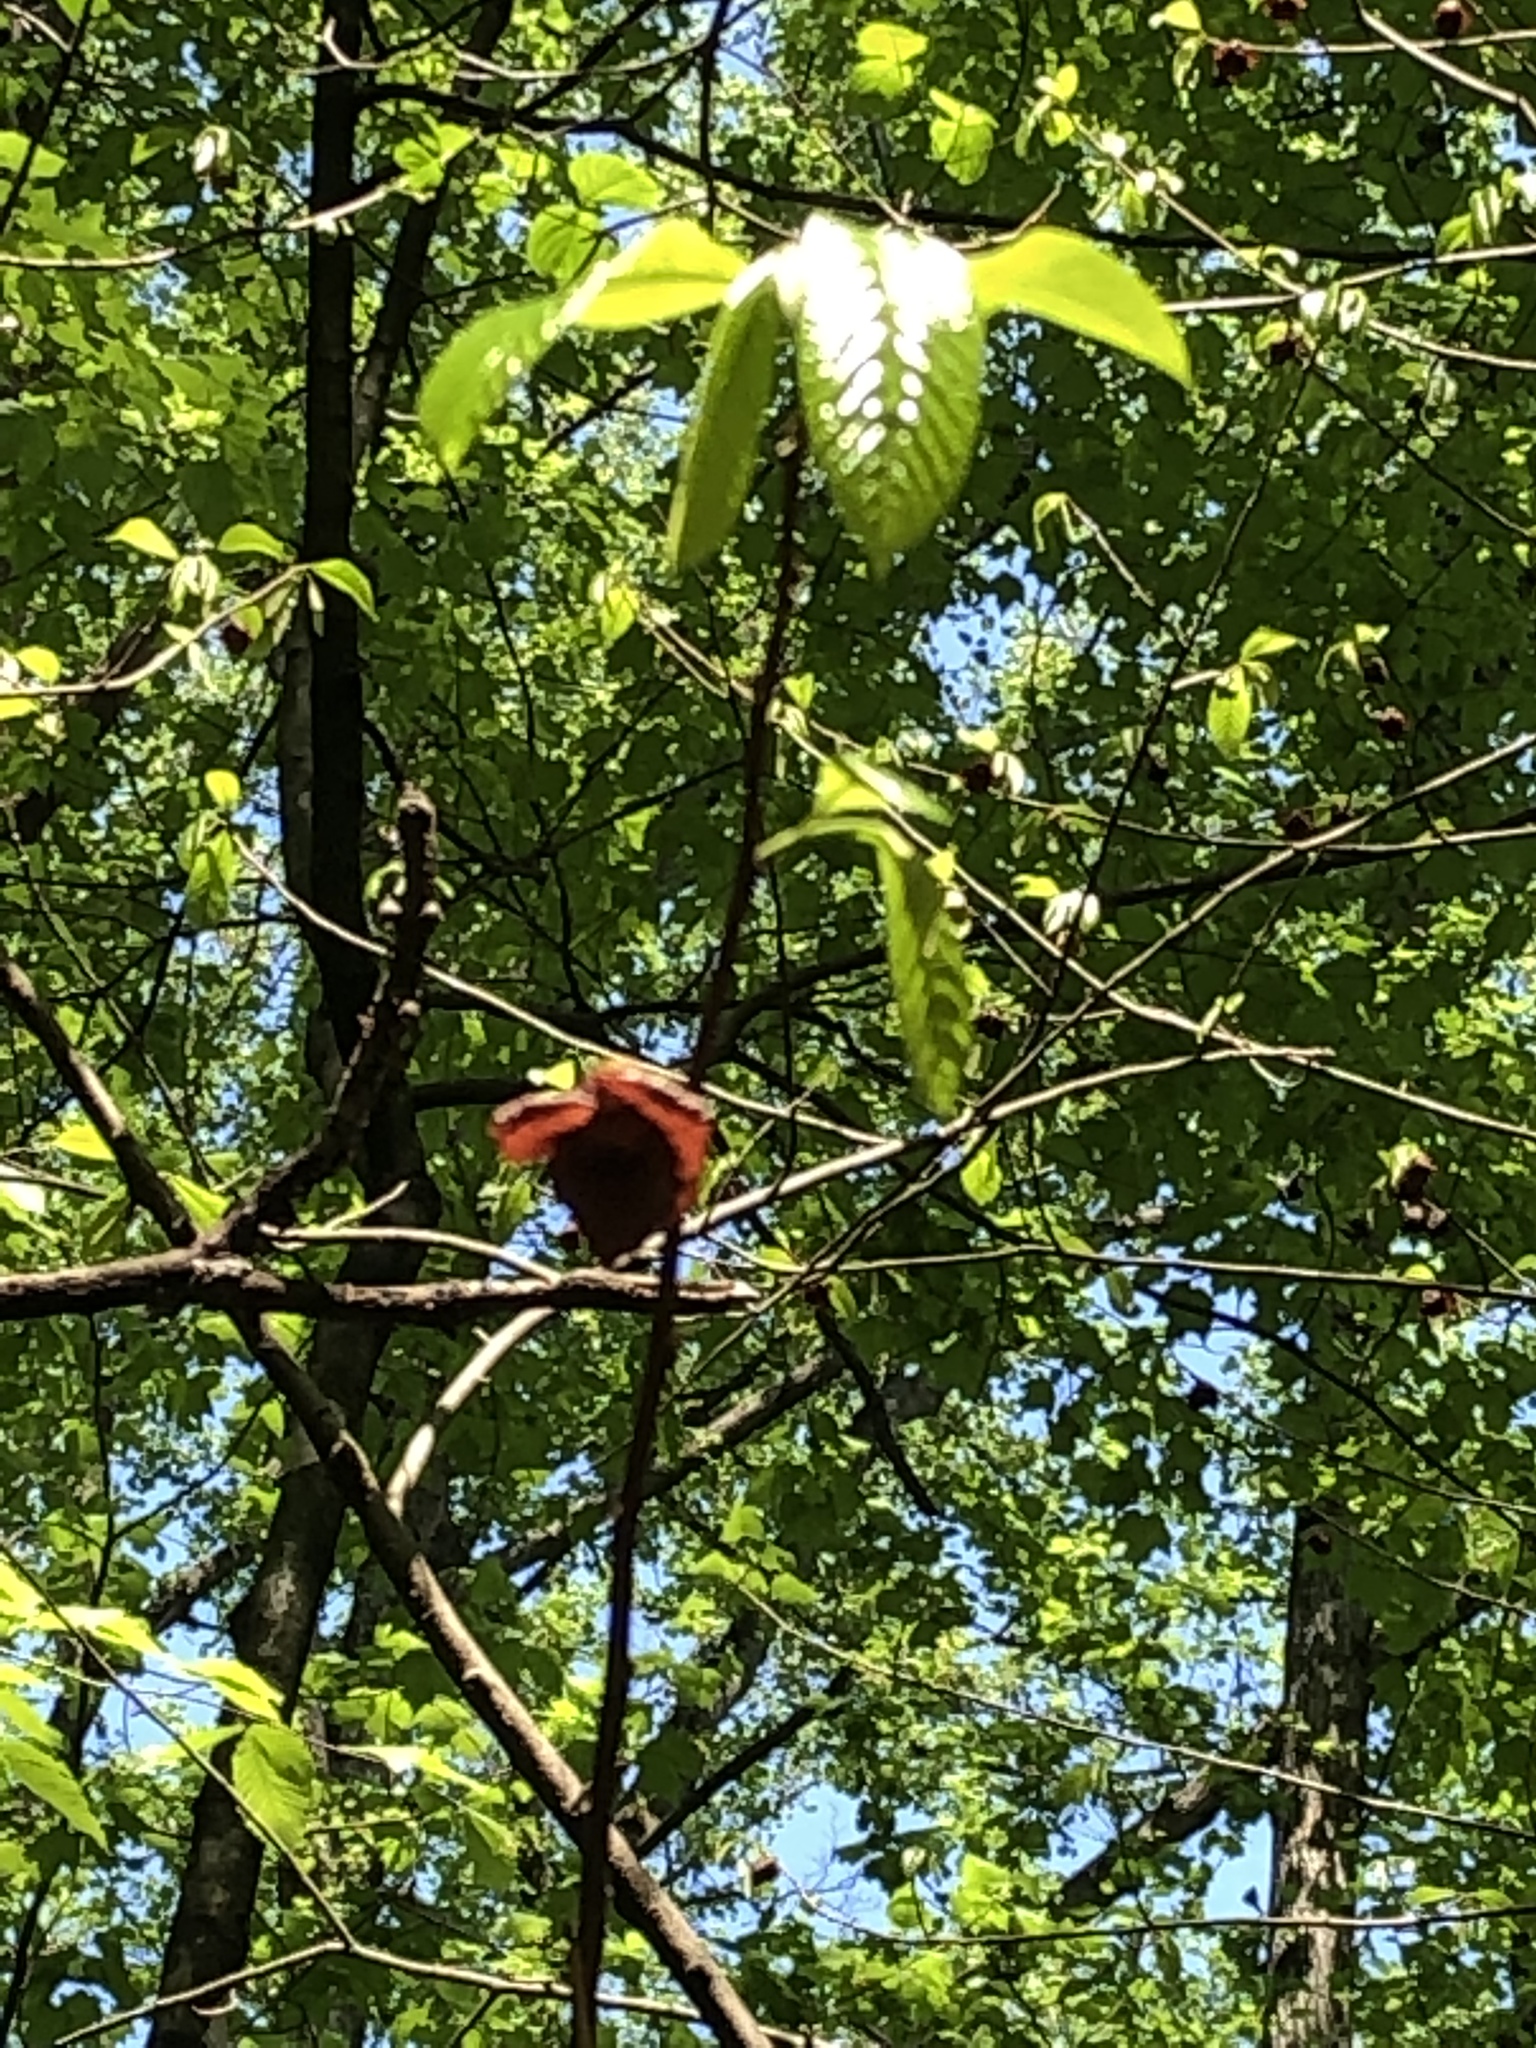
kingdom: Plantae
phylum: Tracheophyta
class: Magnoliopsida
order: Magnoliales
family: Annonaceae
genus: Asimina
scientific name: Asimina triloba
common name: Dog-banana
